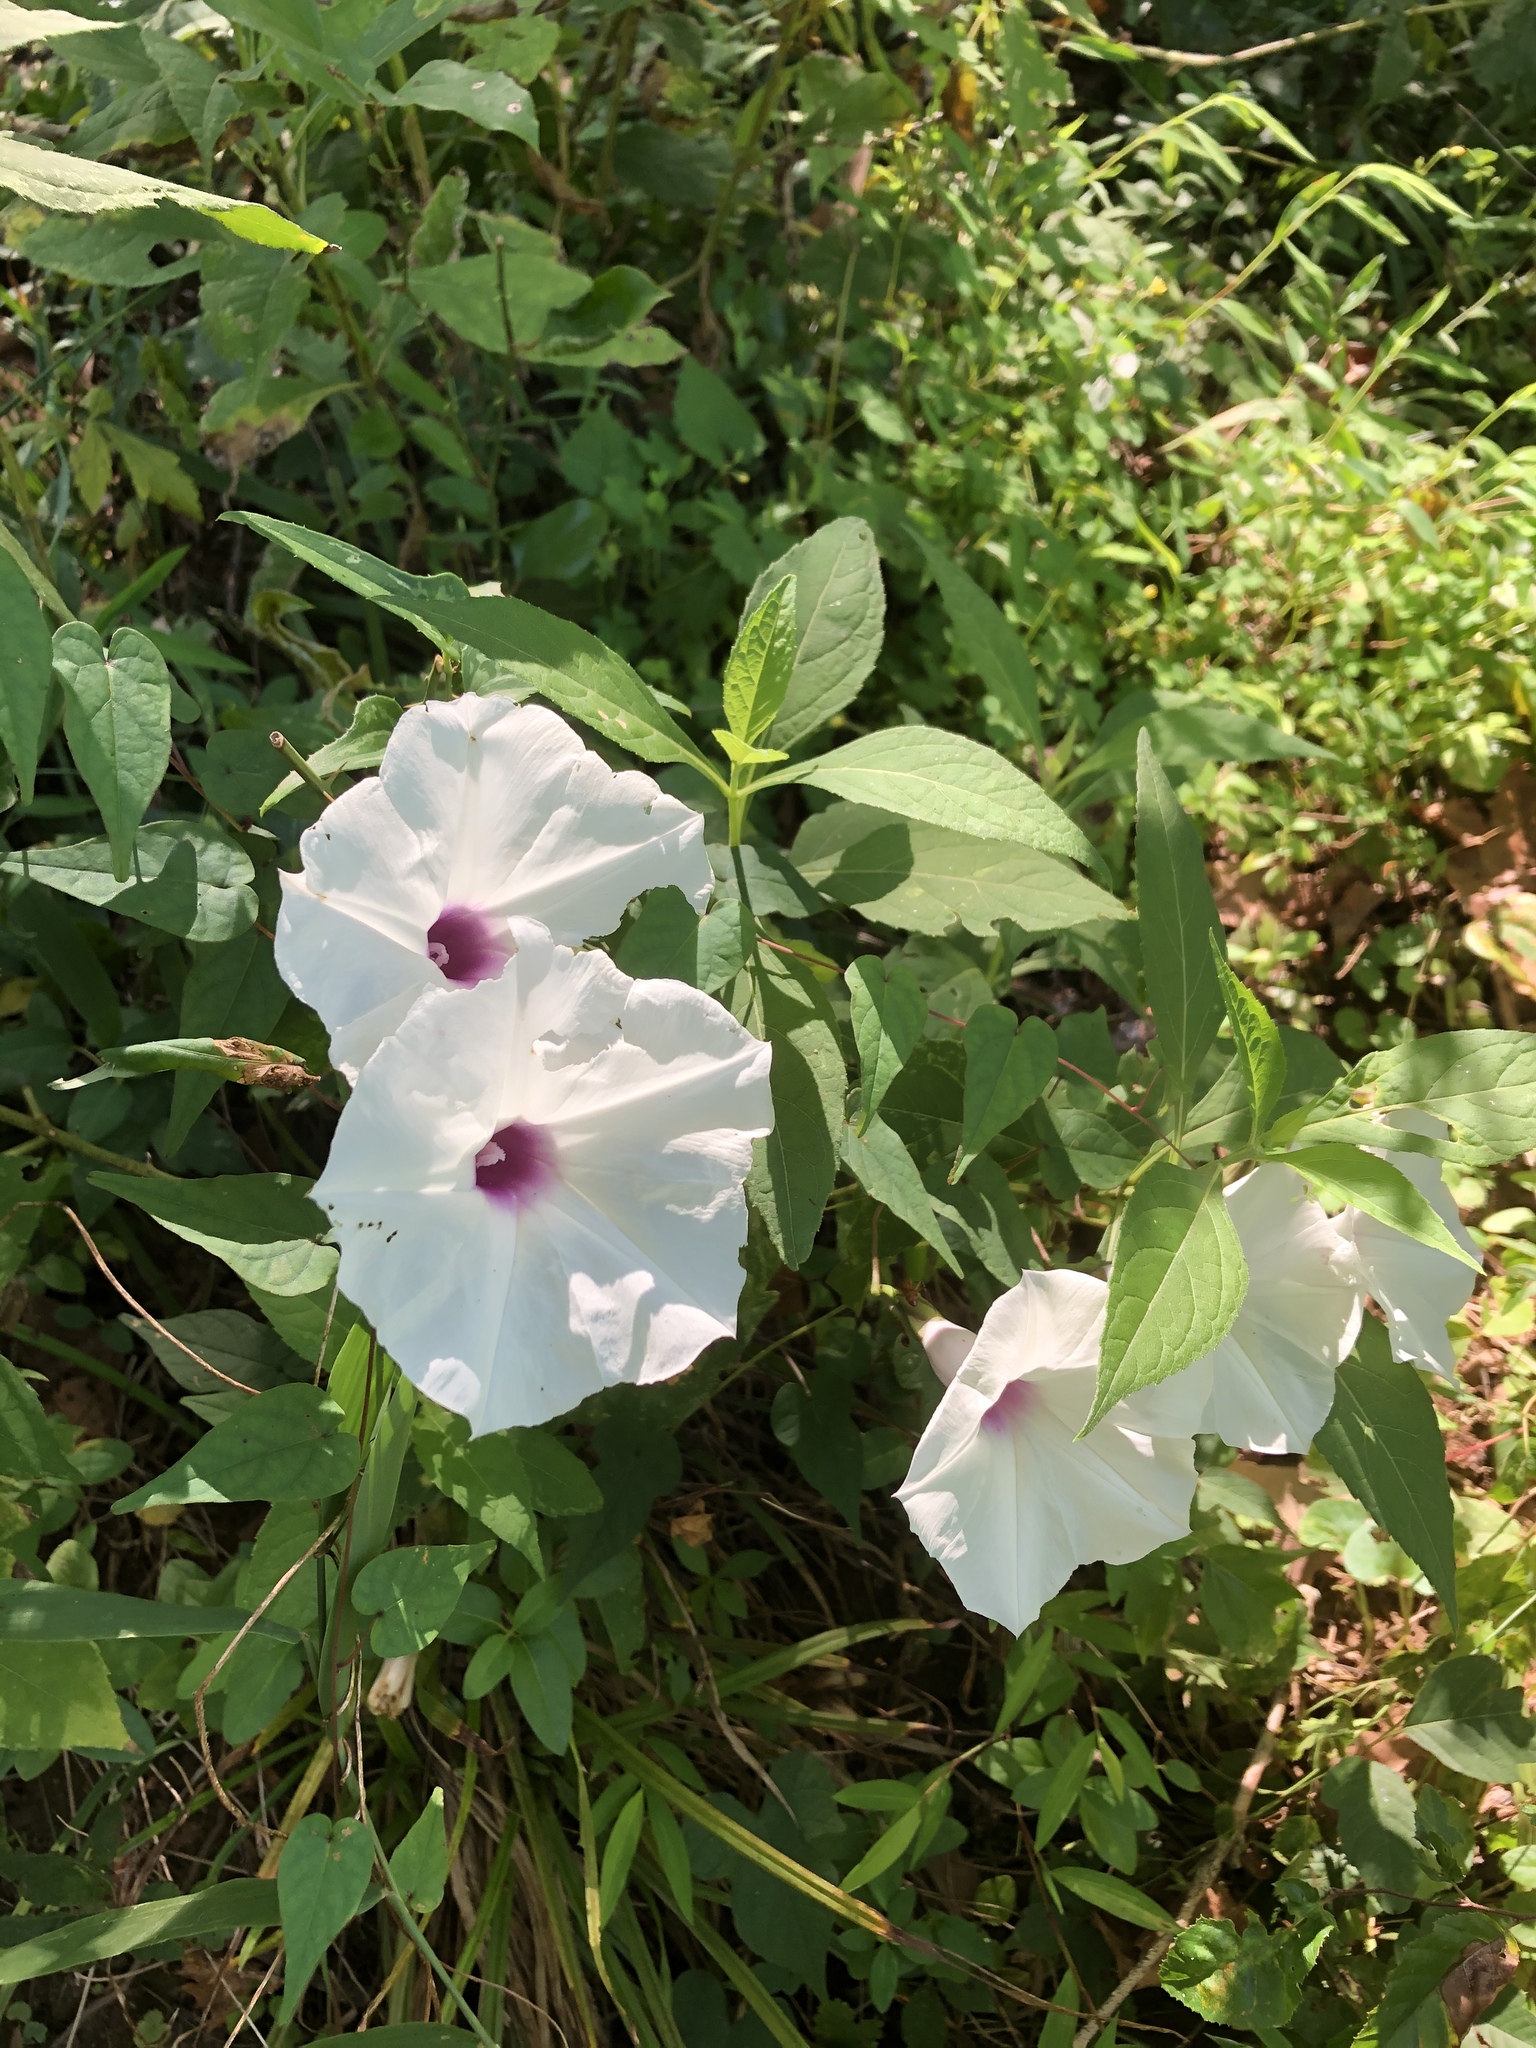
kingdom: Plantae
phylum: Tracheophyta
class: Magnoliopsida
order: Solanales
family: Convolvulaceae
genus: Ipomoea
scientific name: Ipomoea pandurata
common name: Man-of-the-earth
